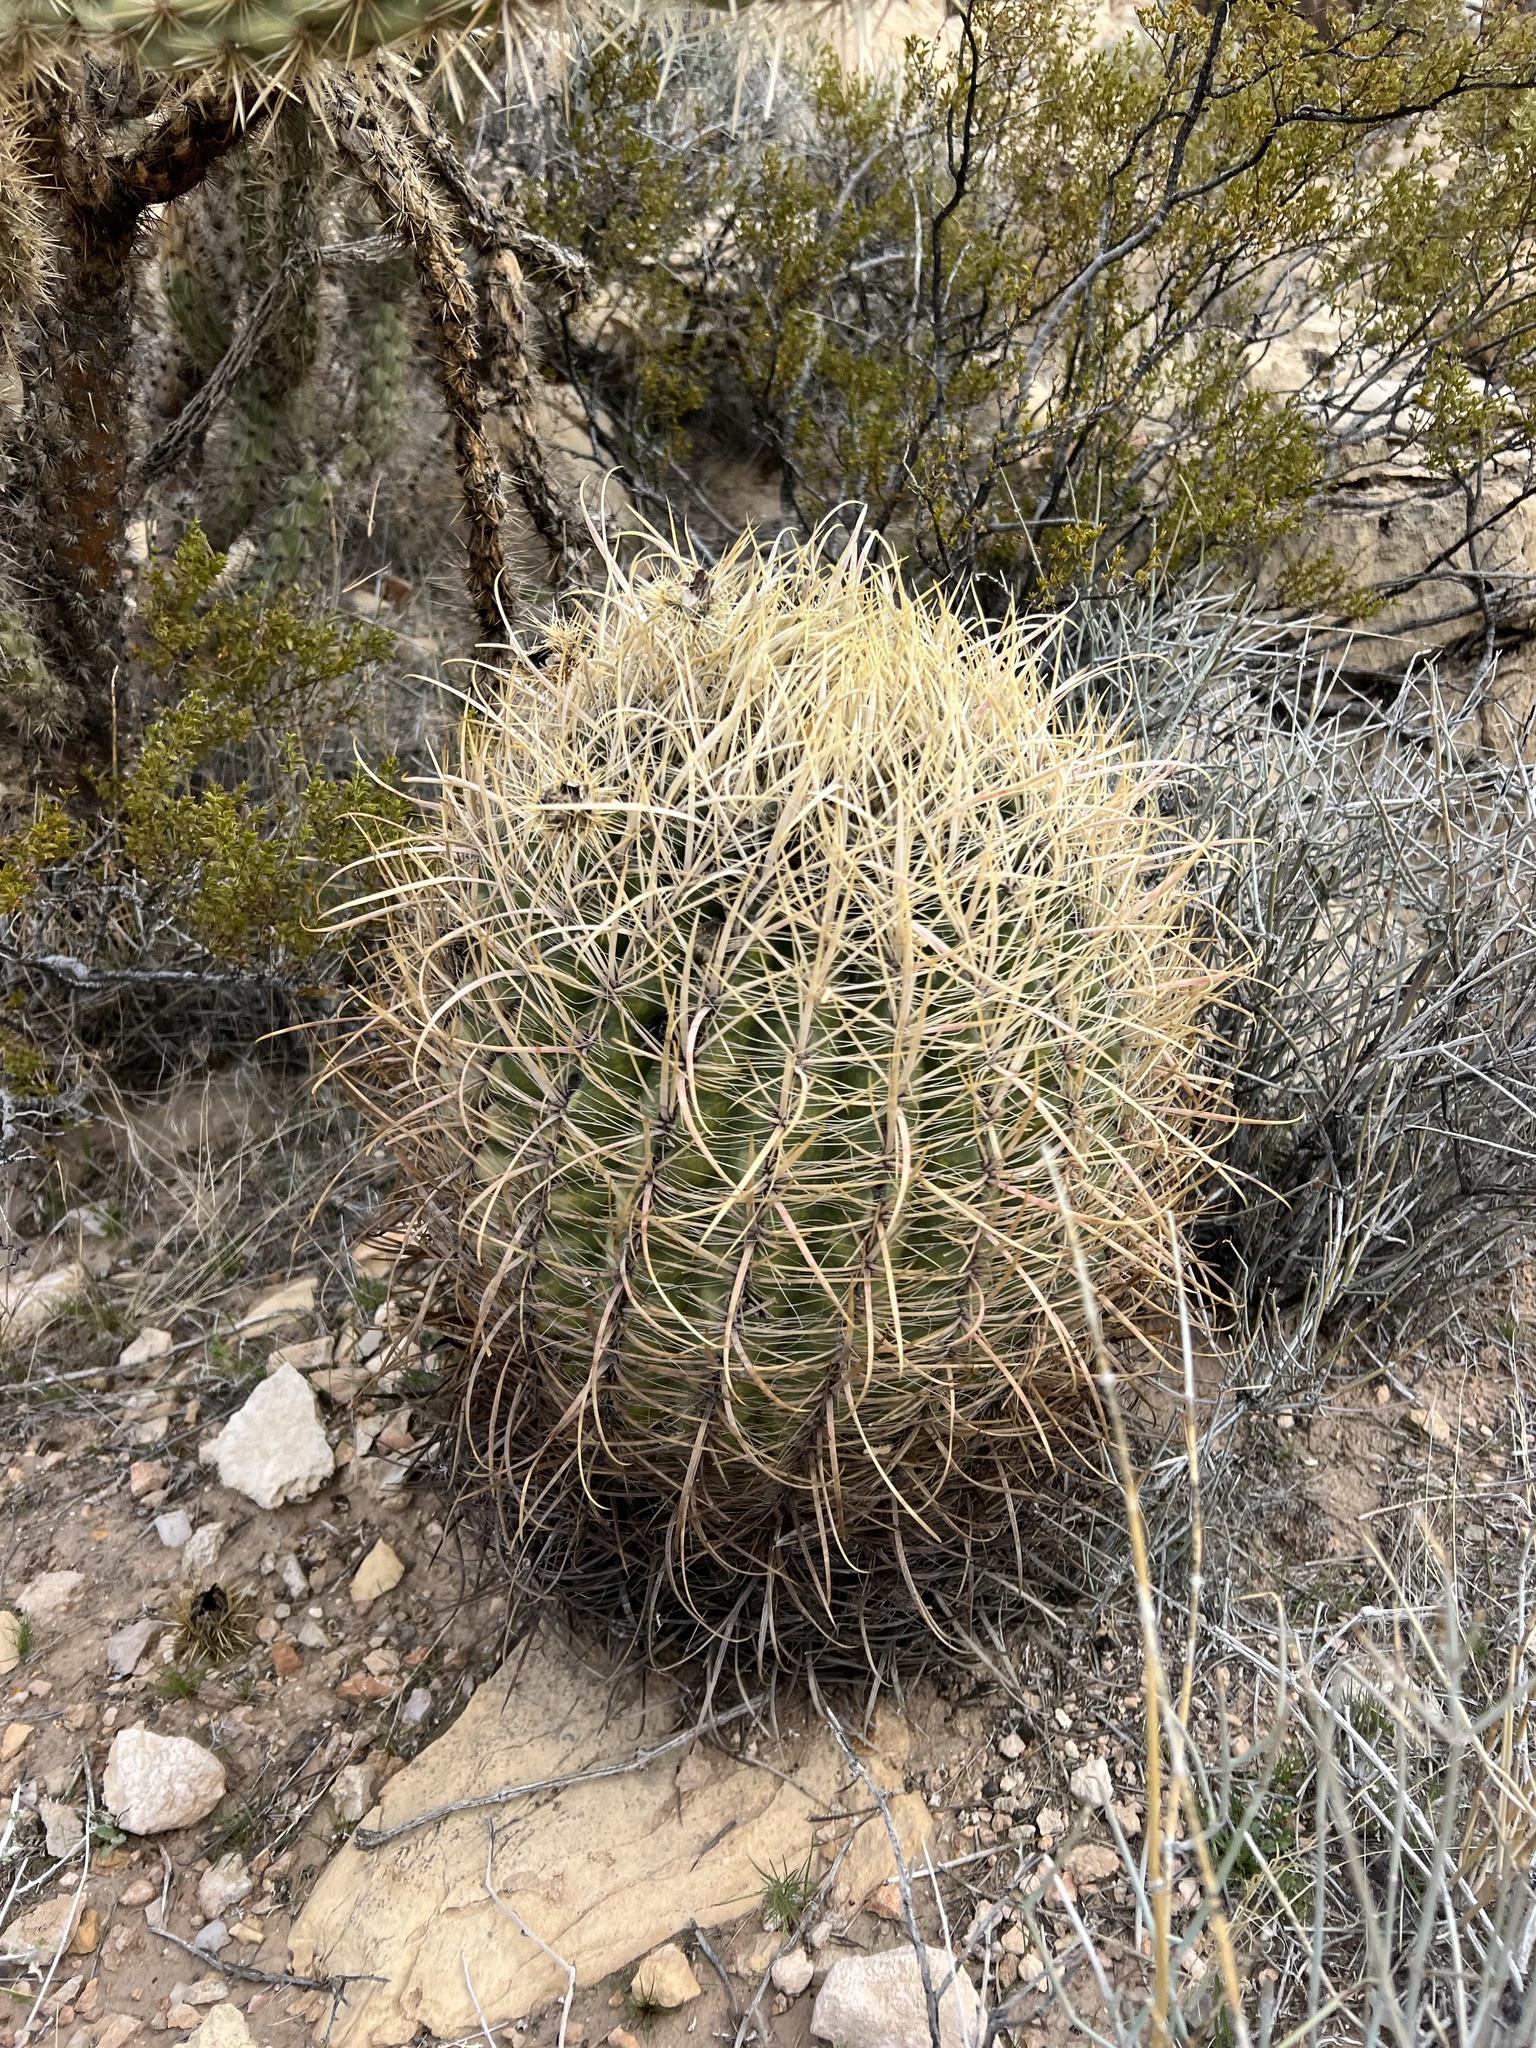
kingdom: Plantae
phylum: Tracheophyta
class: Magnoliopsida
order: Caryophyllales
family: Cactaceae
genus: Ferocactus
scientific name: Ferocactus cylindraceus
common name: California barrel cactus
